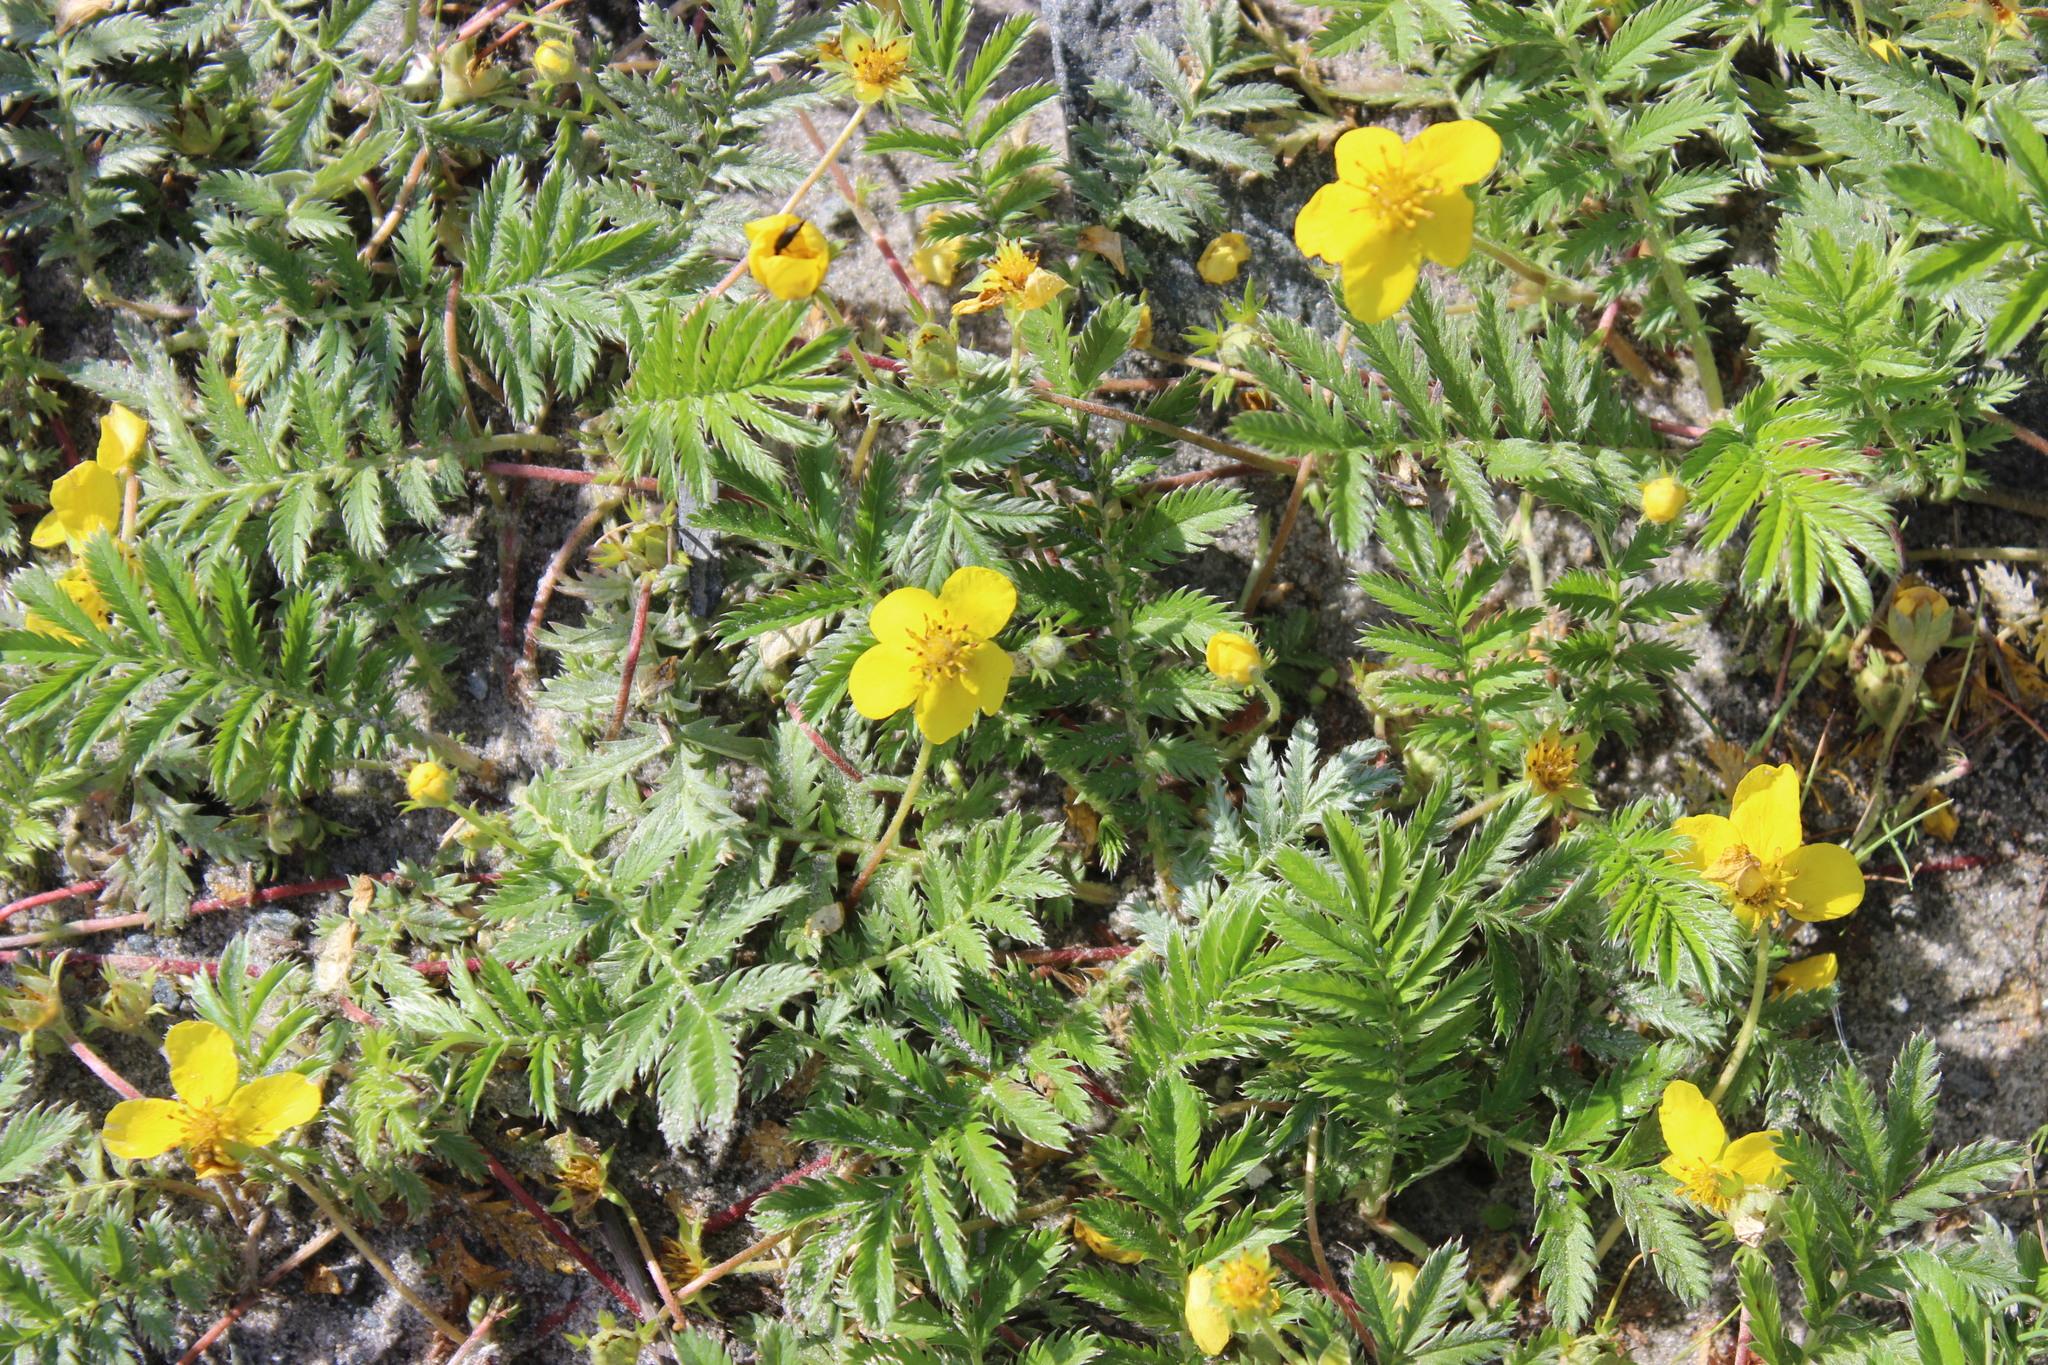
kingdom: Plantae
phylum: Tracheophyta
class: Magnoliopsida
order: Rosales
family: Rosaceae
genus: Argentina
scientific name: Argentina anserina
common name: Common silverweed
